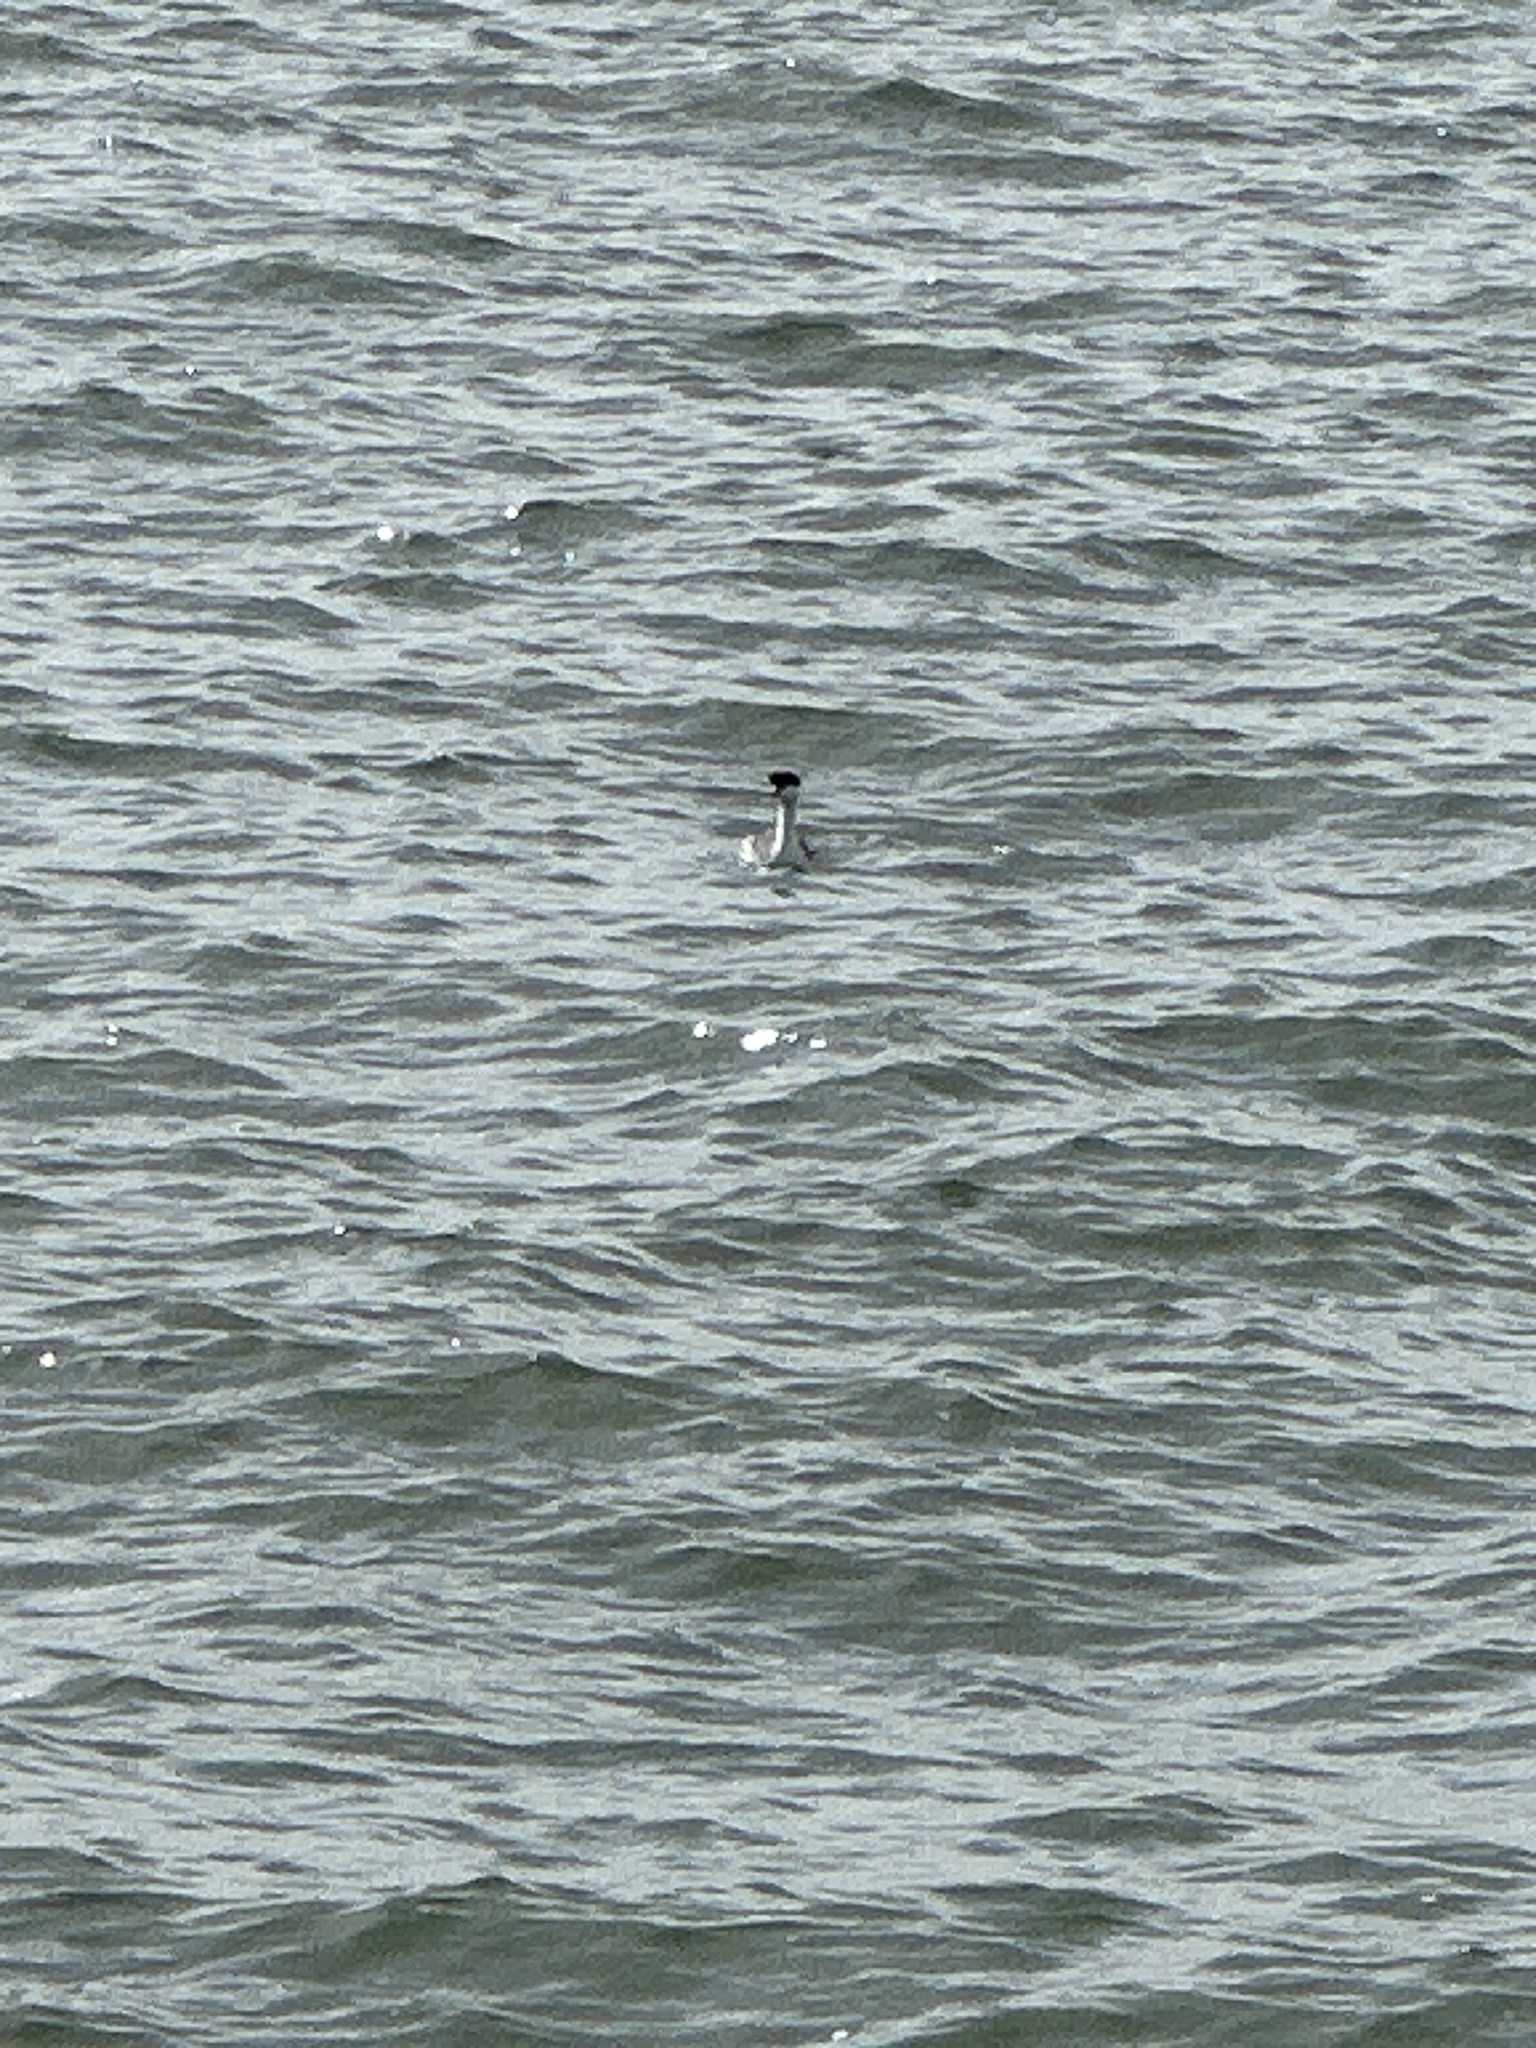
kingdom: Animalia
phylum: Chordata
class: Aves
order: Podicipediformes
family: Podicipedidae
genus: Aechmophorus
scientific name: Aechmophorus occidentalis
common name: Western grebe
